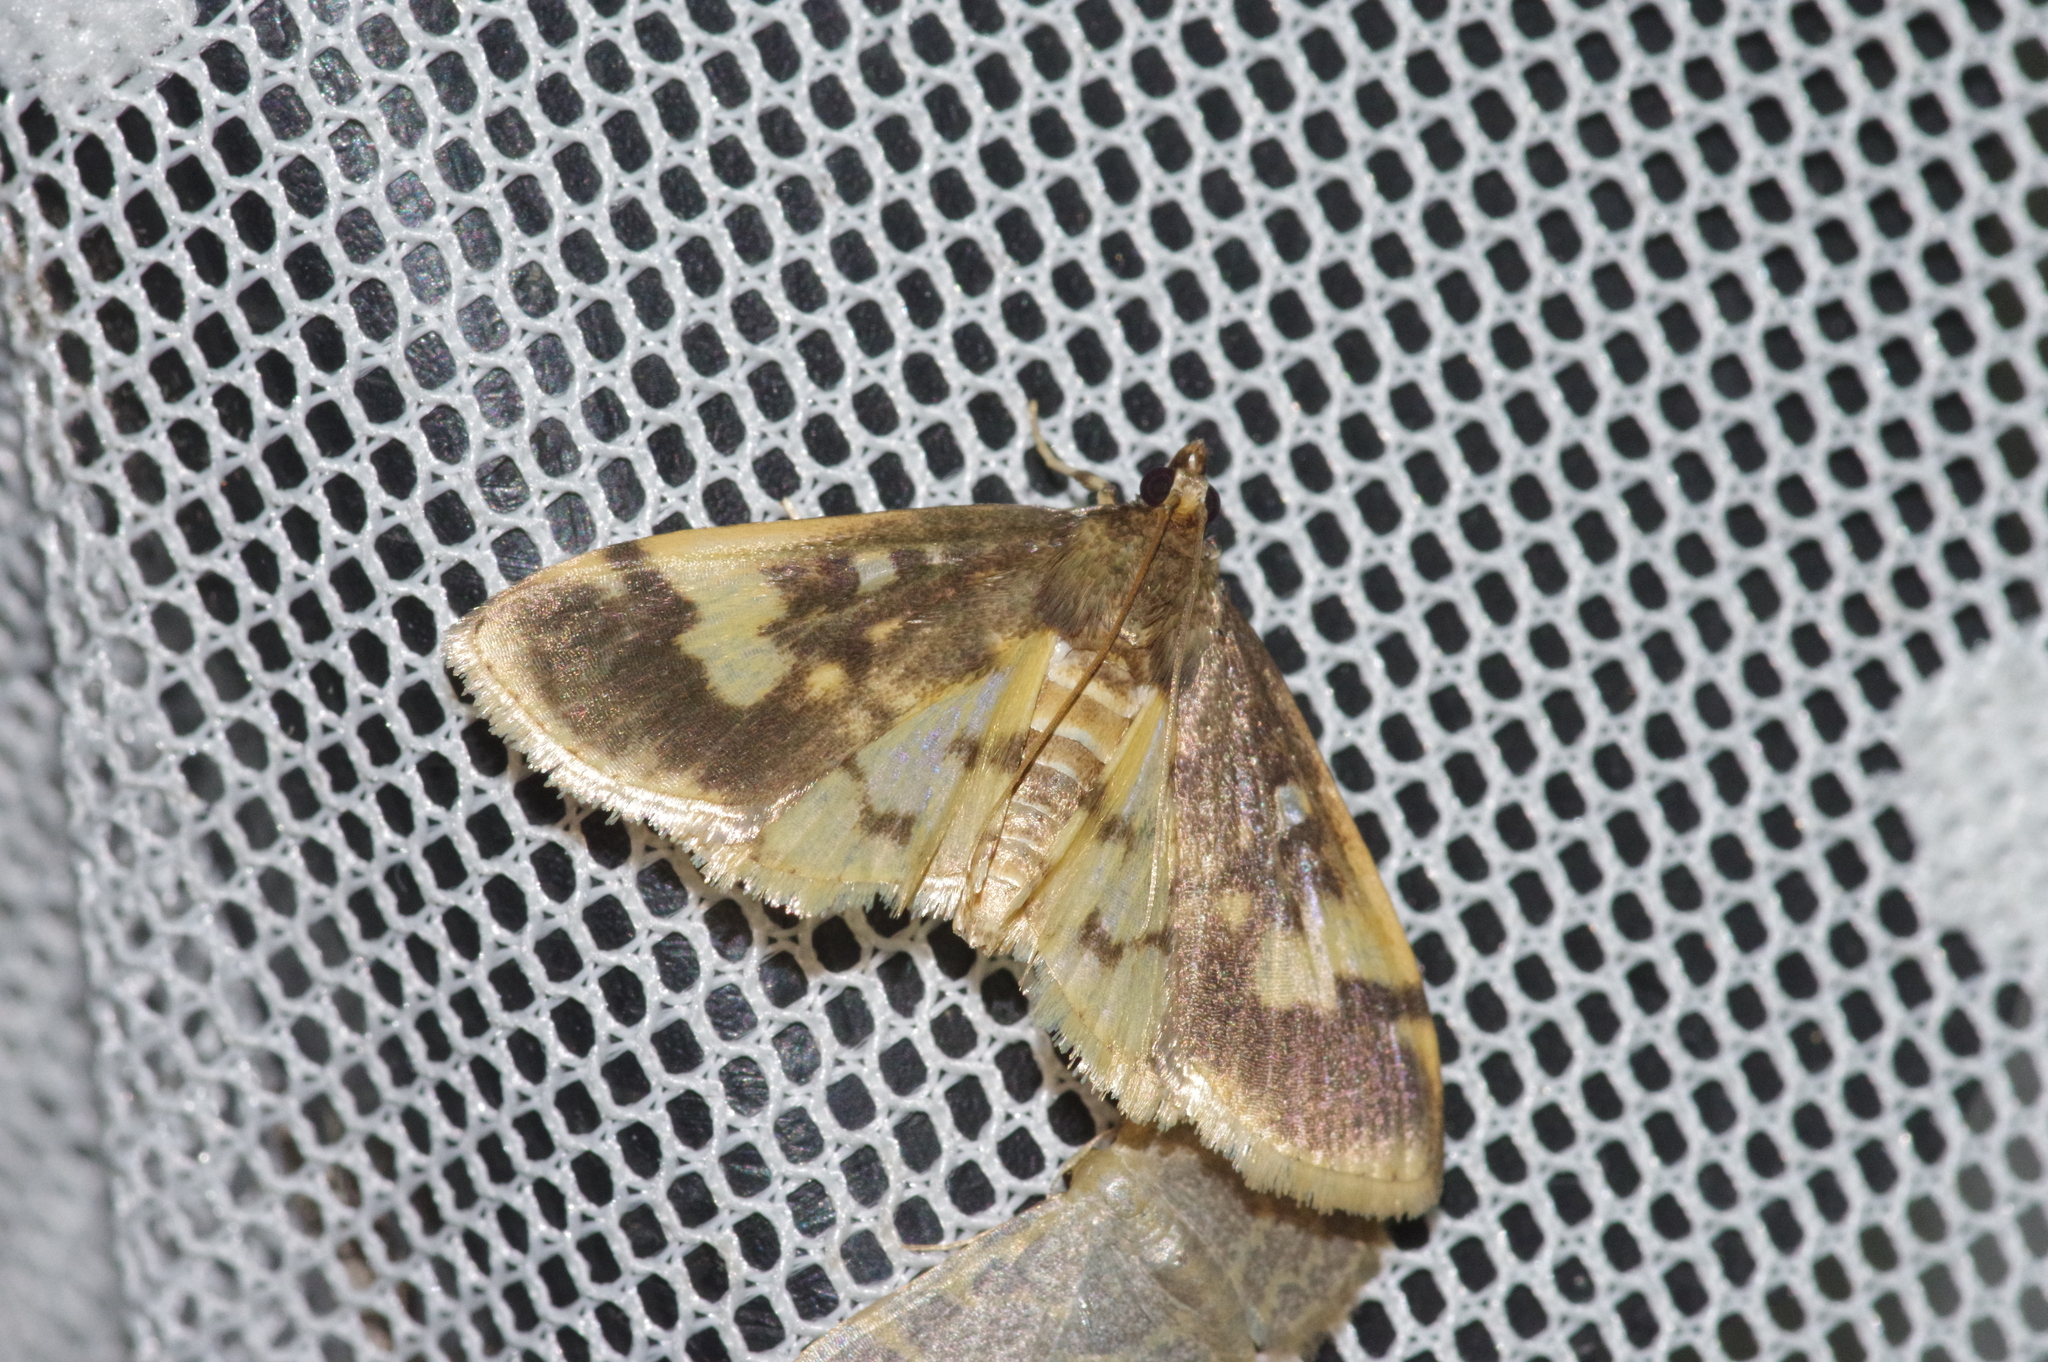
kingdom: Animalia
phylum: Arthropoda
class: Insecta
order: Lepidoptera
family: Crambidae
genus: Pseudebulea
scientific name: Pseudebulea fentoni
